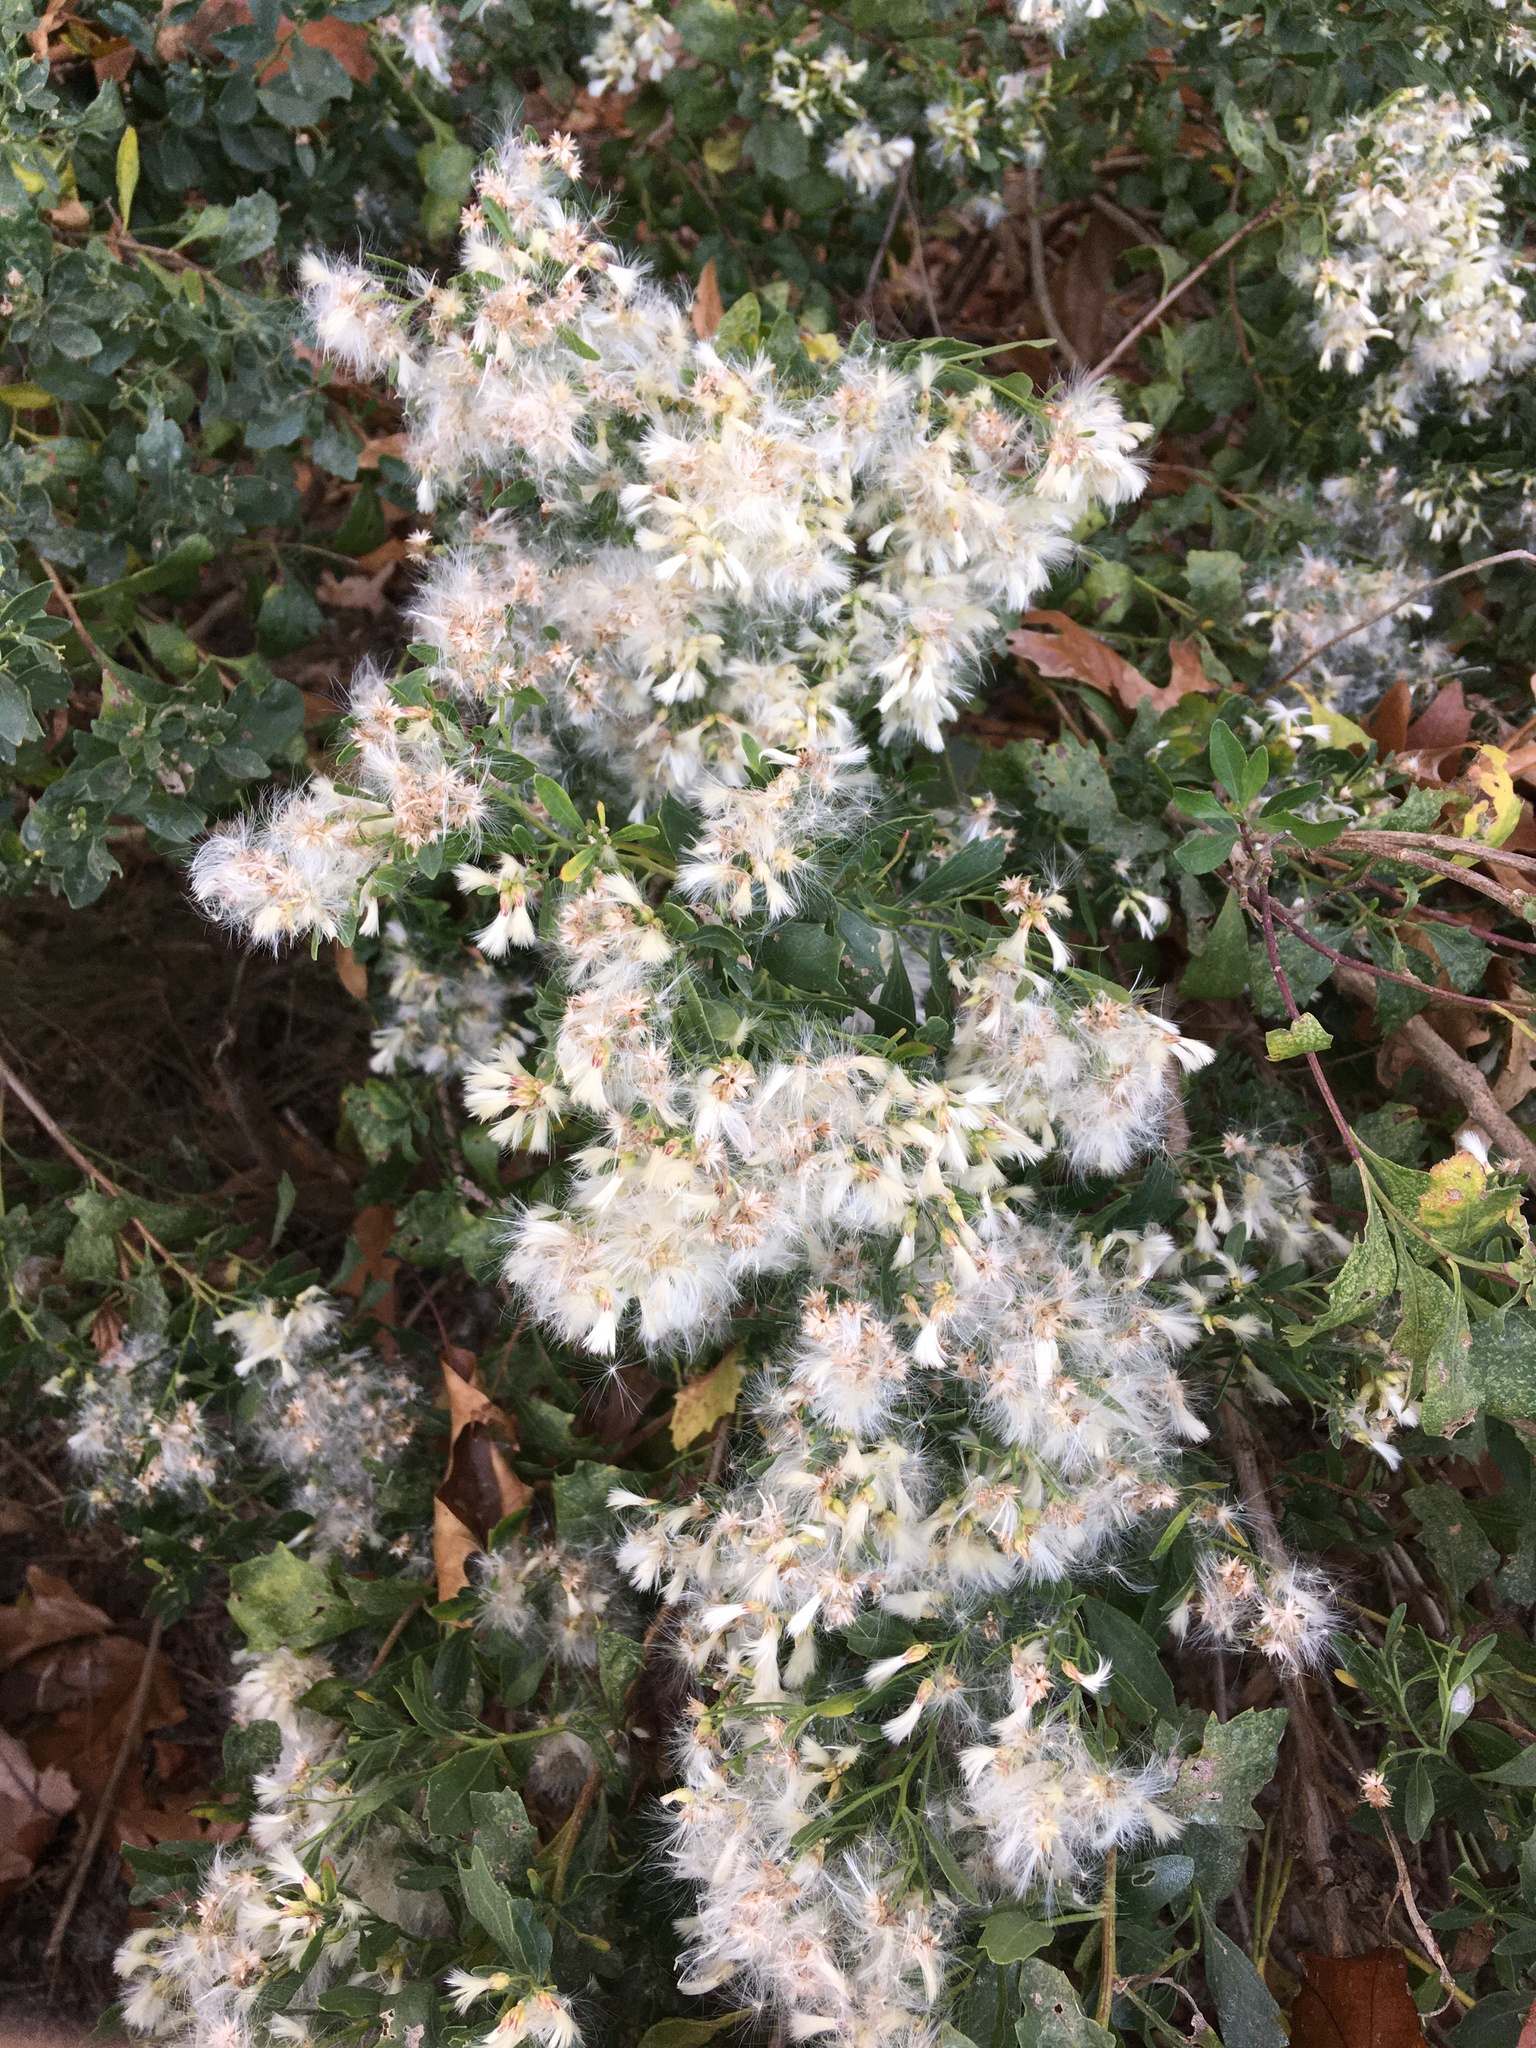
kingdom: Plantae
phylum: Tracheophyta
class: Magnoliopsida
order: Asterales
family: Asteraceae
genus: Baccharis
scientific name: Baccharis halimifolia
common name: Eastern baccharis
